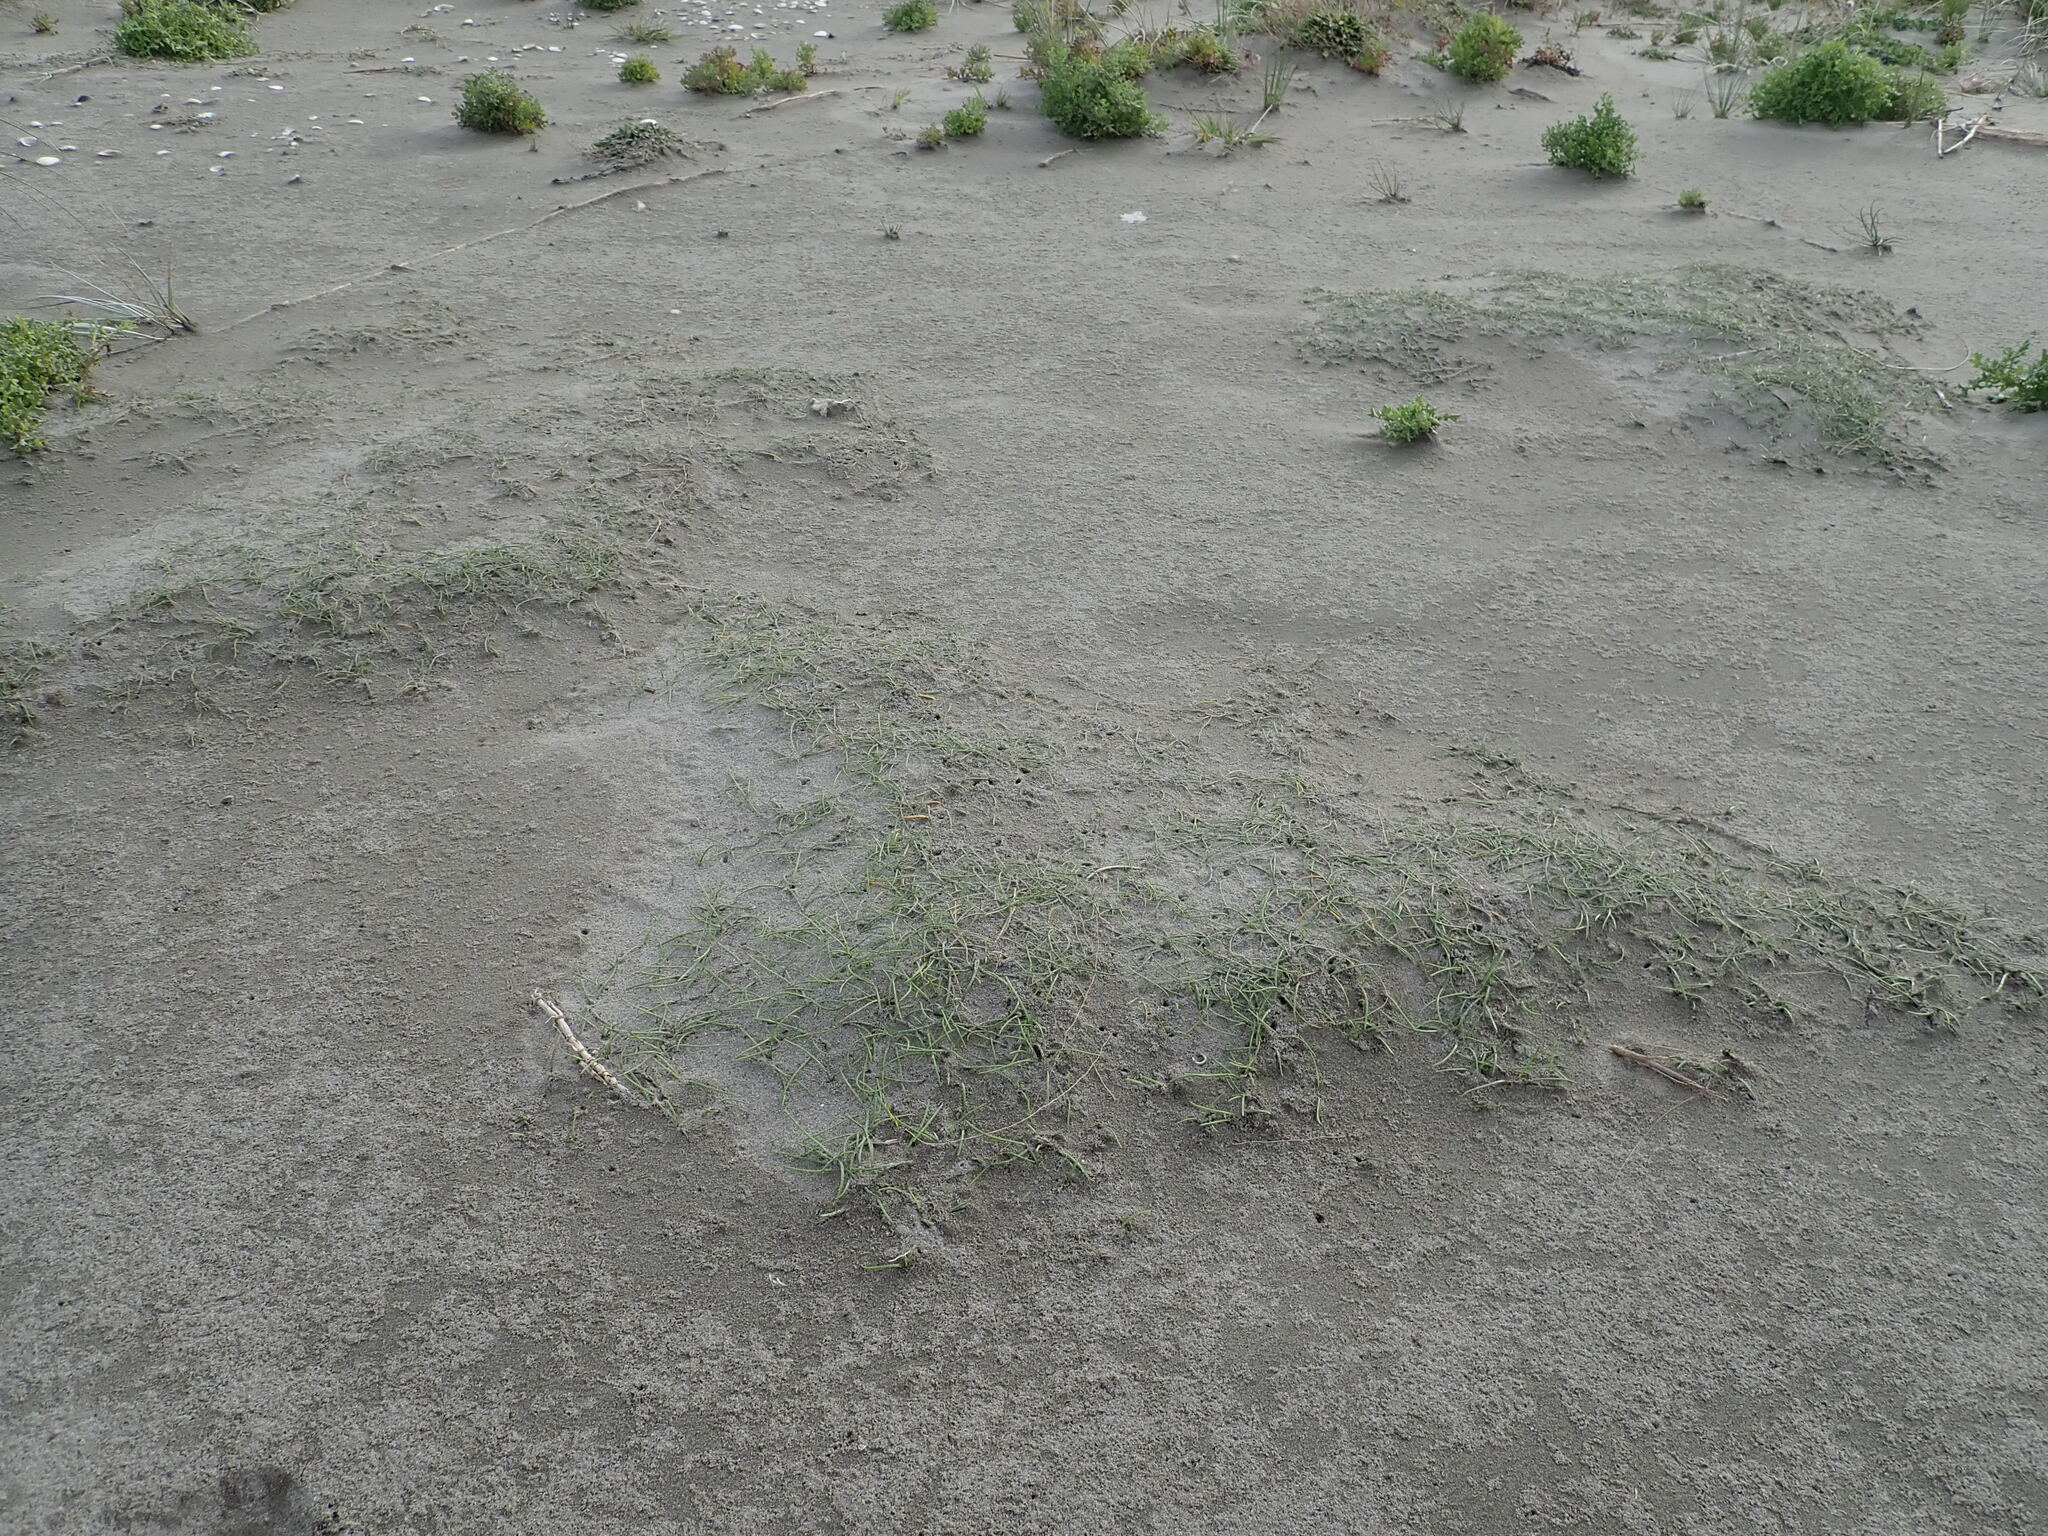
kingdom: Plantae
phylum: Tracheophyta
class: Liliopsida
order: Alismatales
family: Juncaginaceae
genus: Triglochin
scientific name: Triglochin striata
